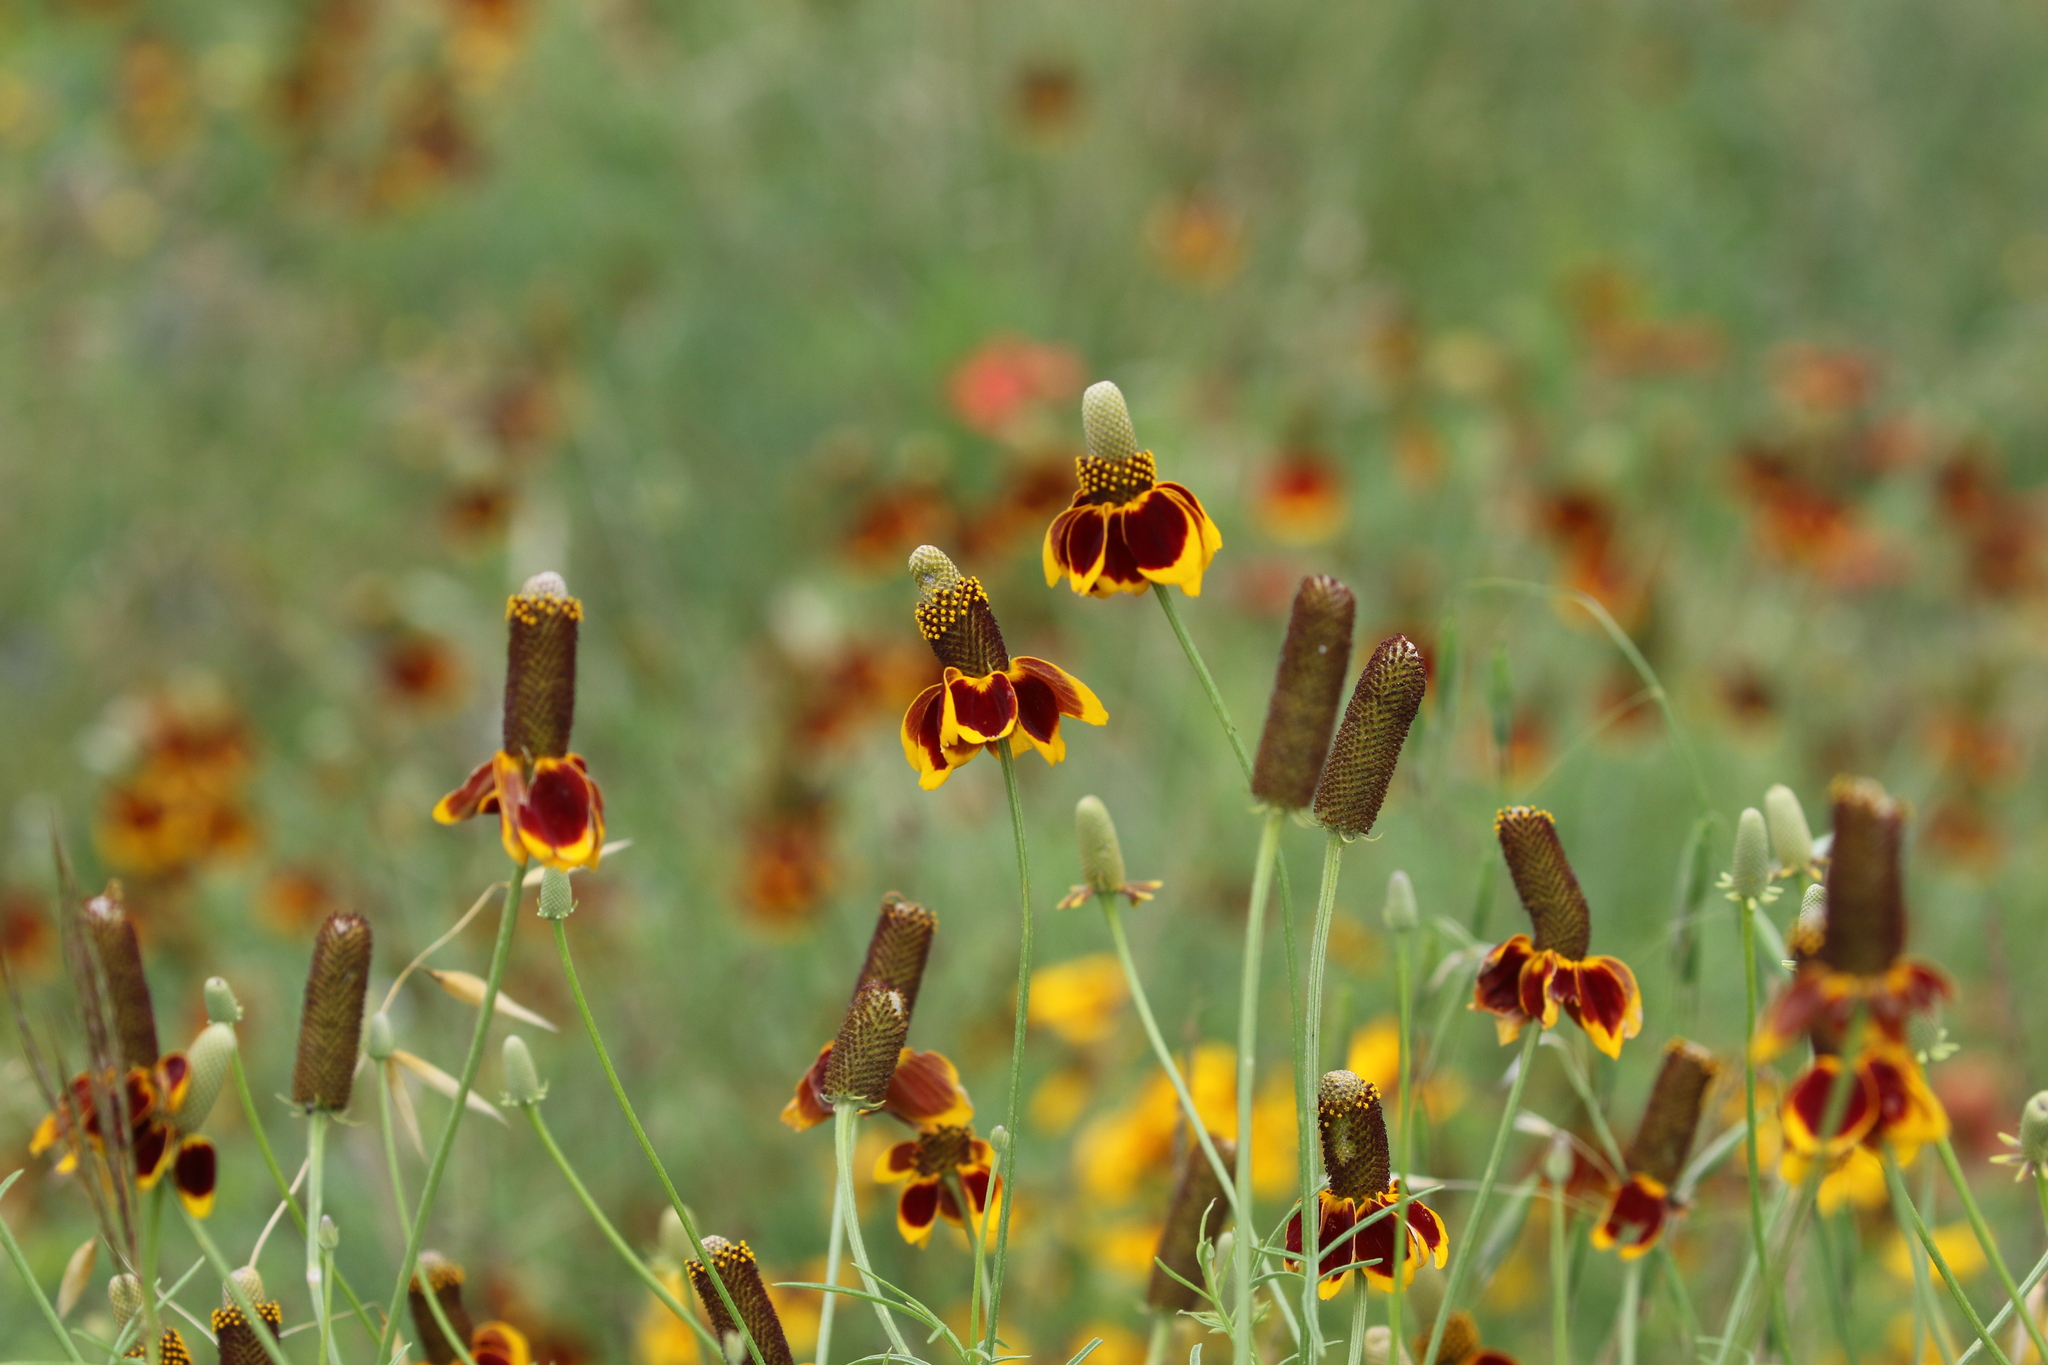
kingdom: Plantae
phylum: Tracheophyta
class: Magnoliopsida
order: Asterales
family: Asteraceae
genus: Ratibida
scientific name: Ratibida columnifera
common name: Prairie coneflower
